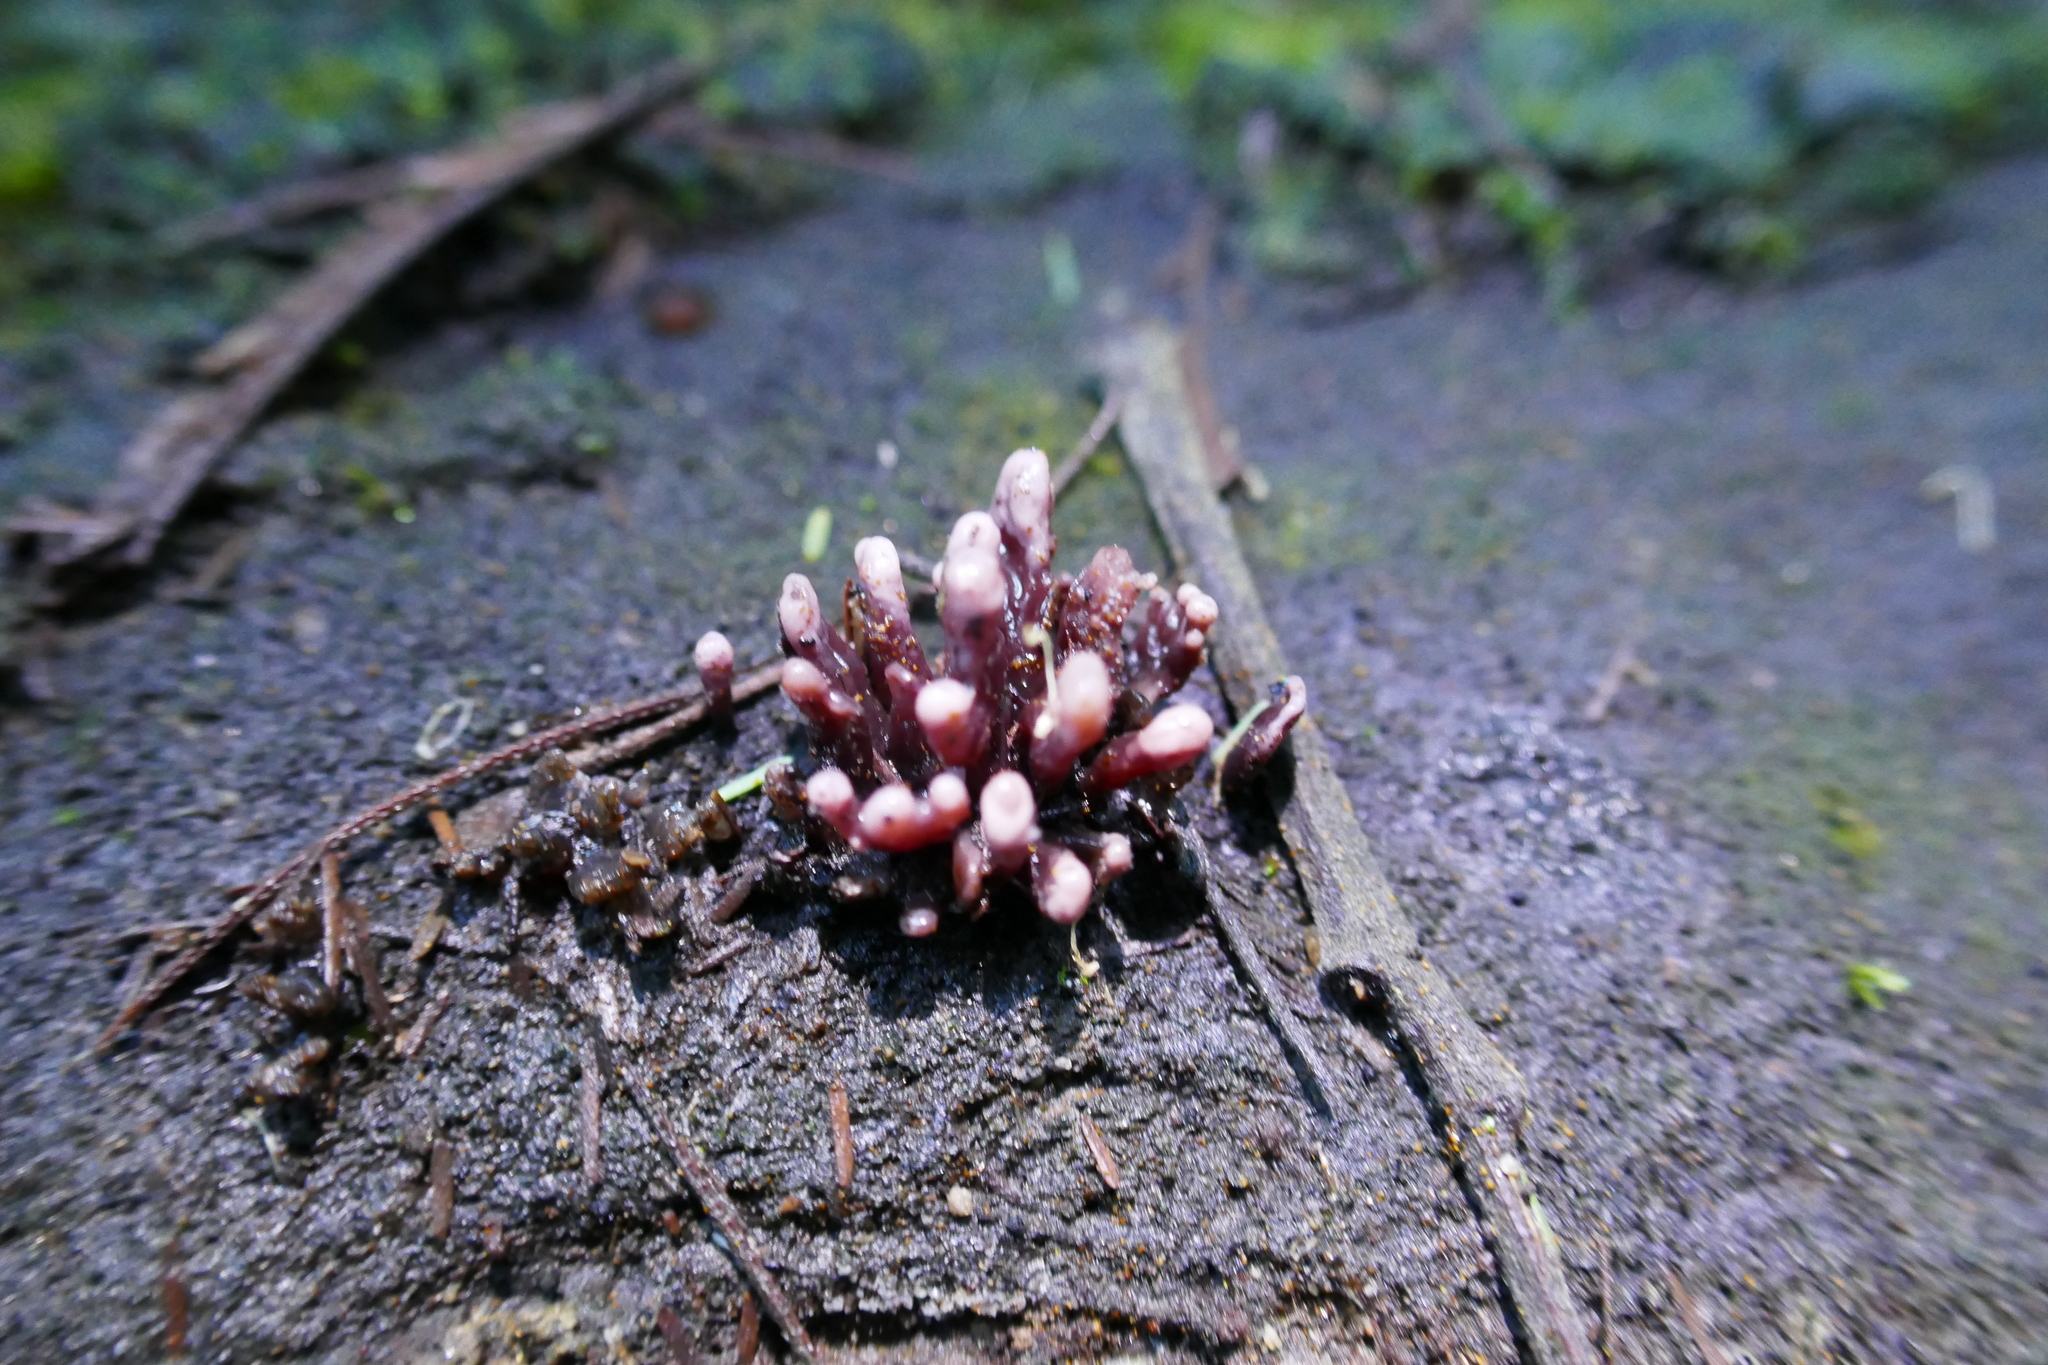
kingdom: Fungi
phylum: Ascomycota
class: Leotiomycetes
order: Helotiales
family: Gelatinodiscaceae
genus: Ascocoryne
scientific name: Ascocoryne sarcoides
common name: Purple jellydisc
